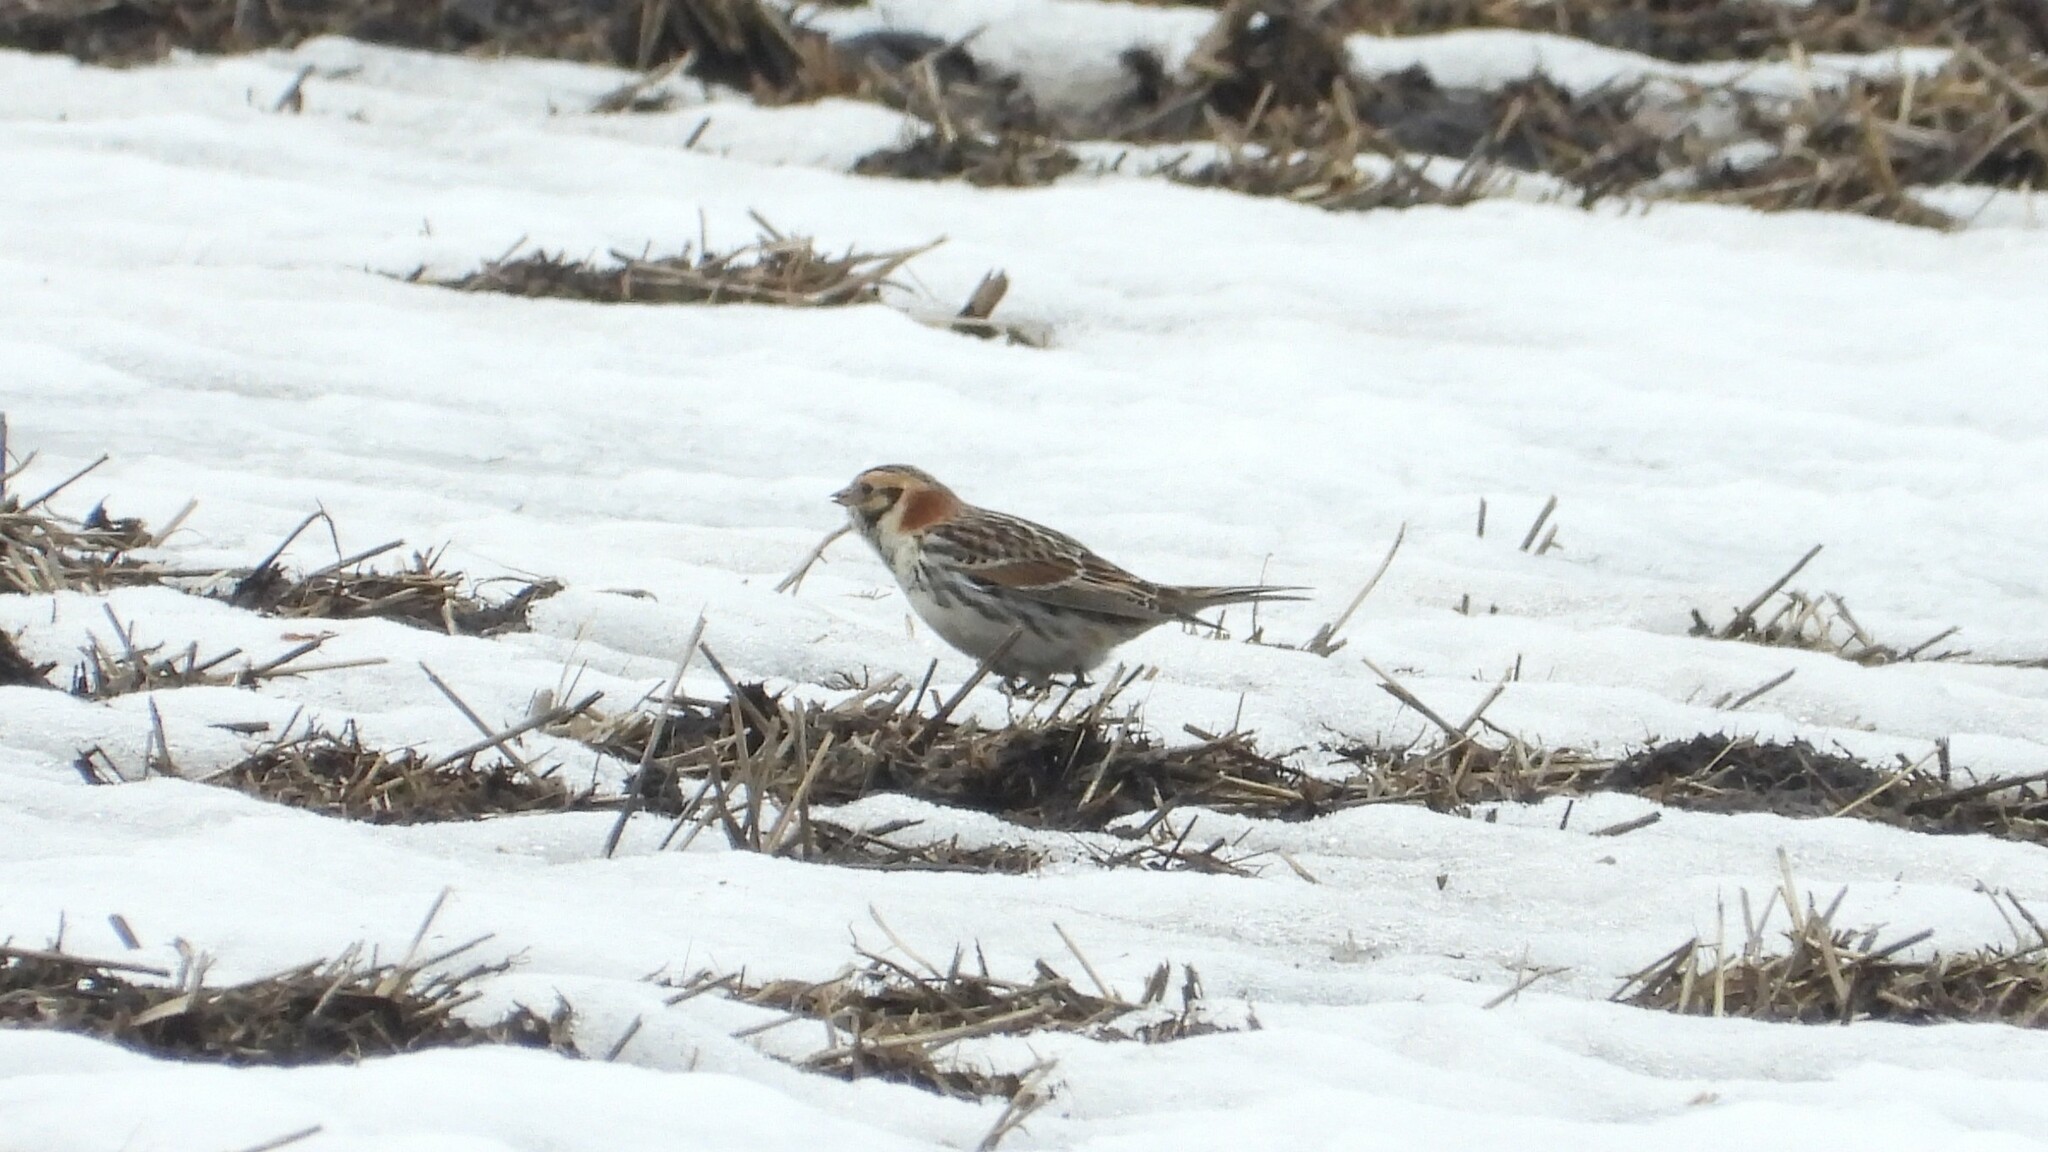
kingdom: Animalia
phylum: Chordata
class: Aves
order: Passeriformes
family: Calcariidae
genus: Calcarius
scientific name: Calcarius lapponicus
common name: Lapland longspur
